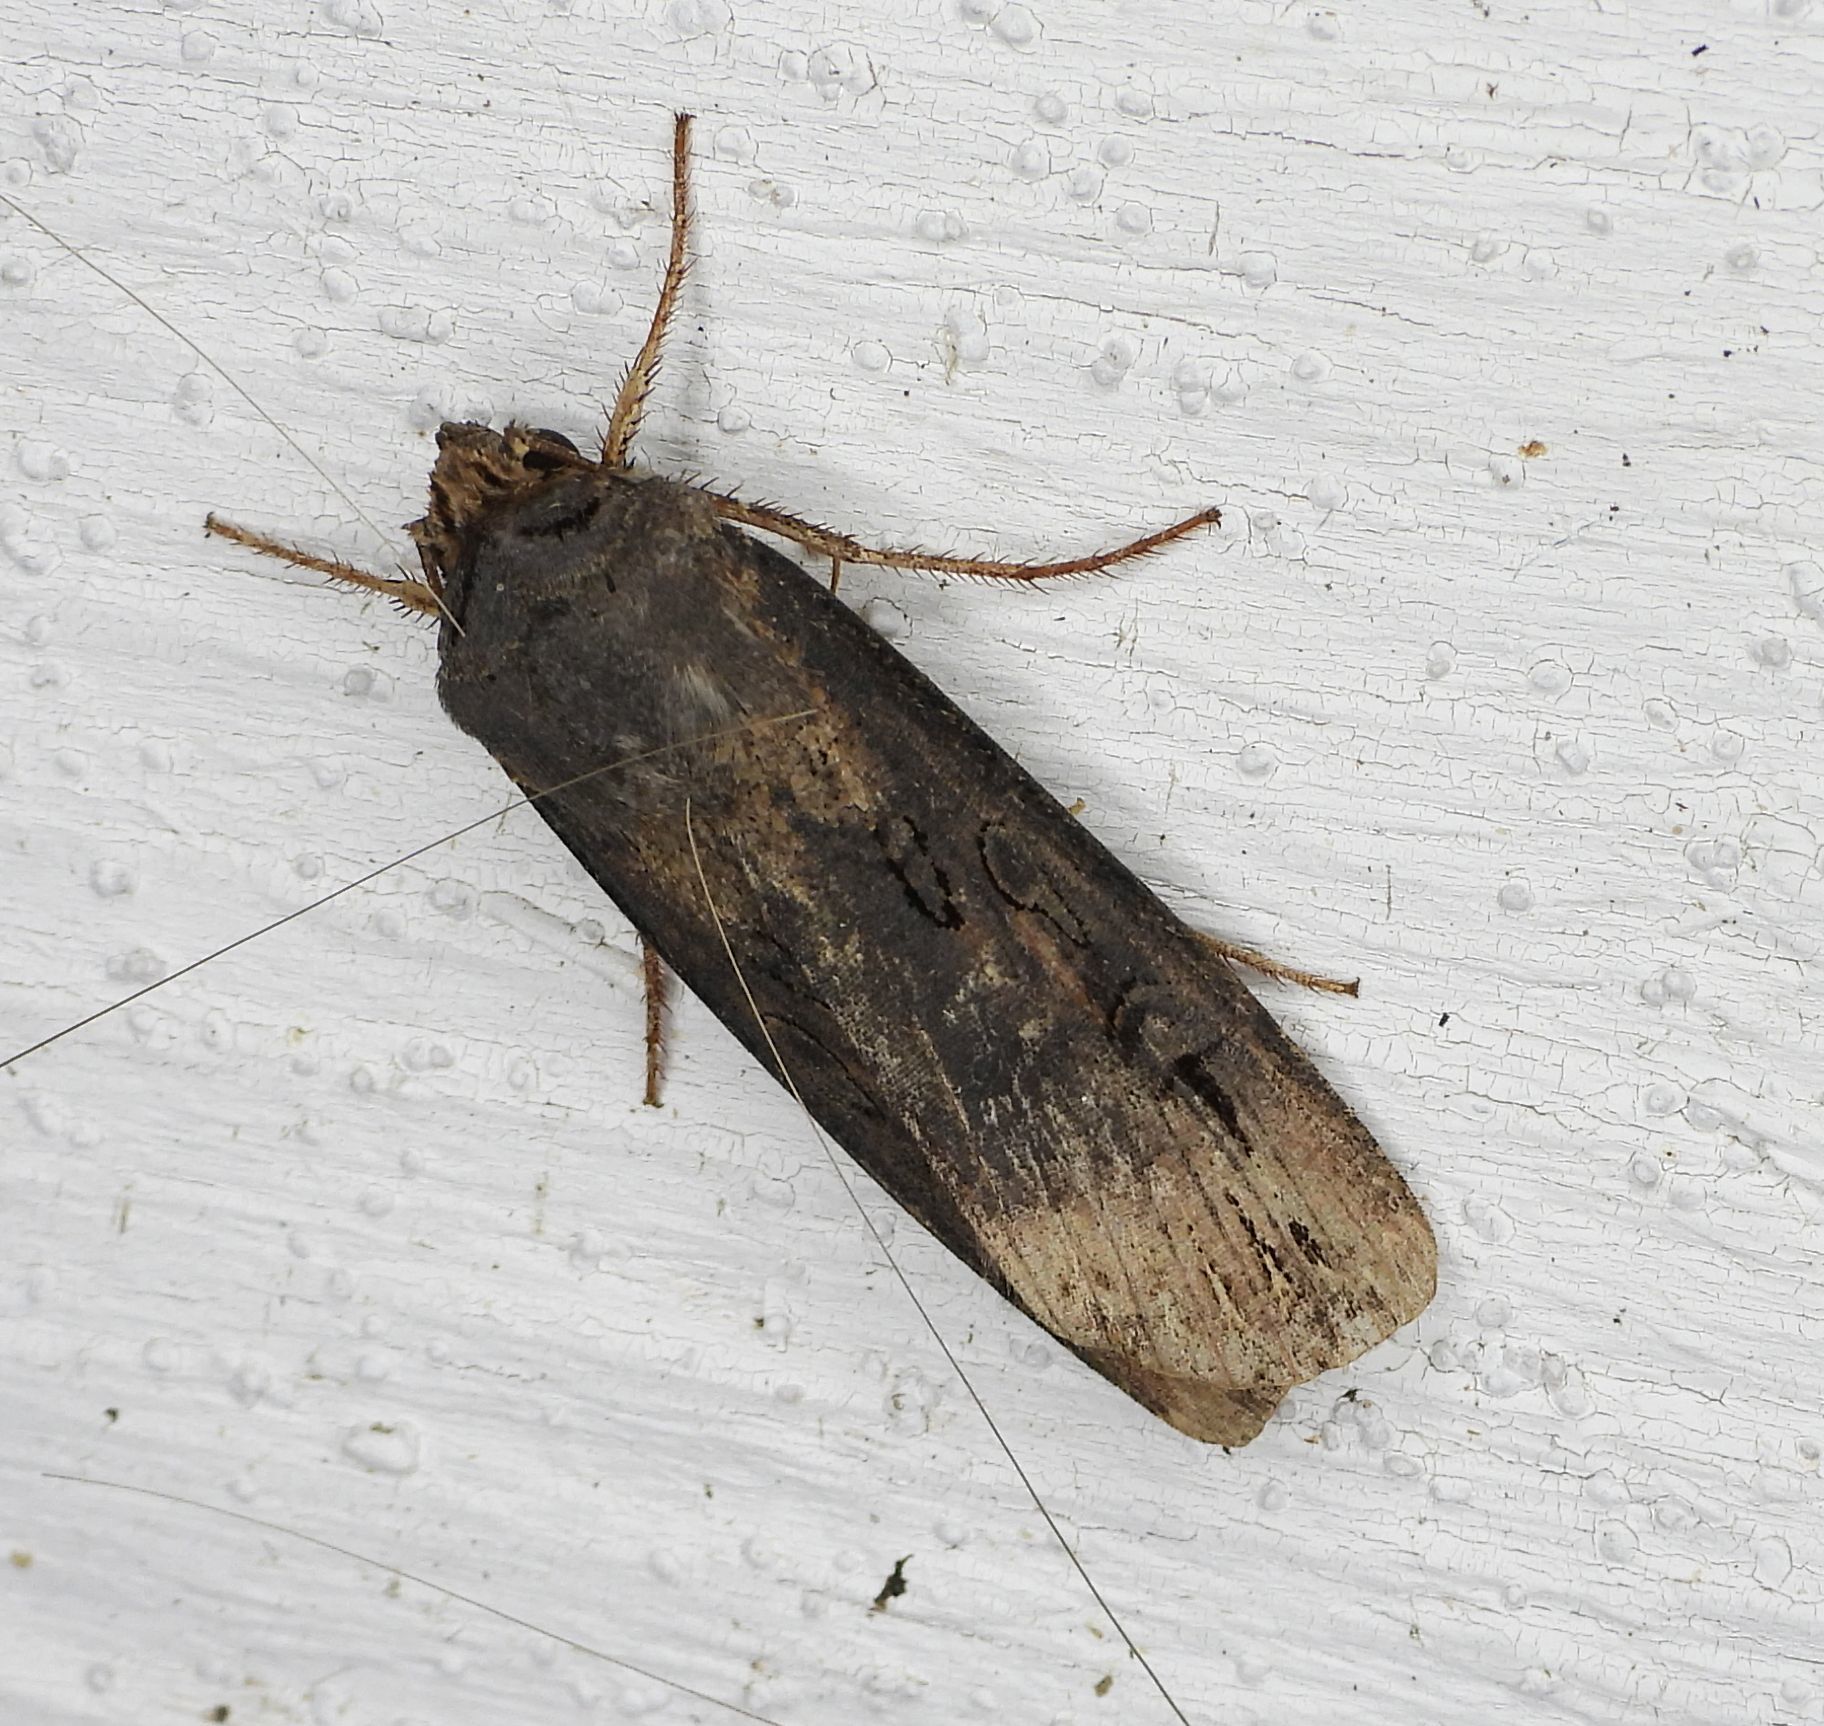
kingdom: Animalia
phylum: Arthropoda
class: Insecta
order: Lepidoptera
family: Noctuidae
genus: Agrotis
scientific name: Agrotis ipsilon
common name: Dark sword-grass
